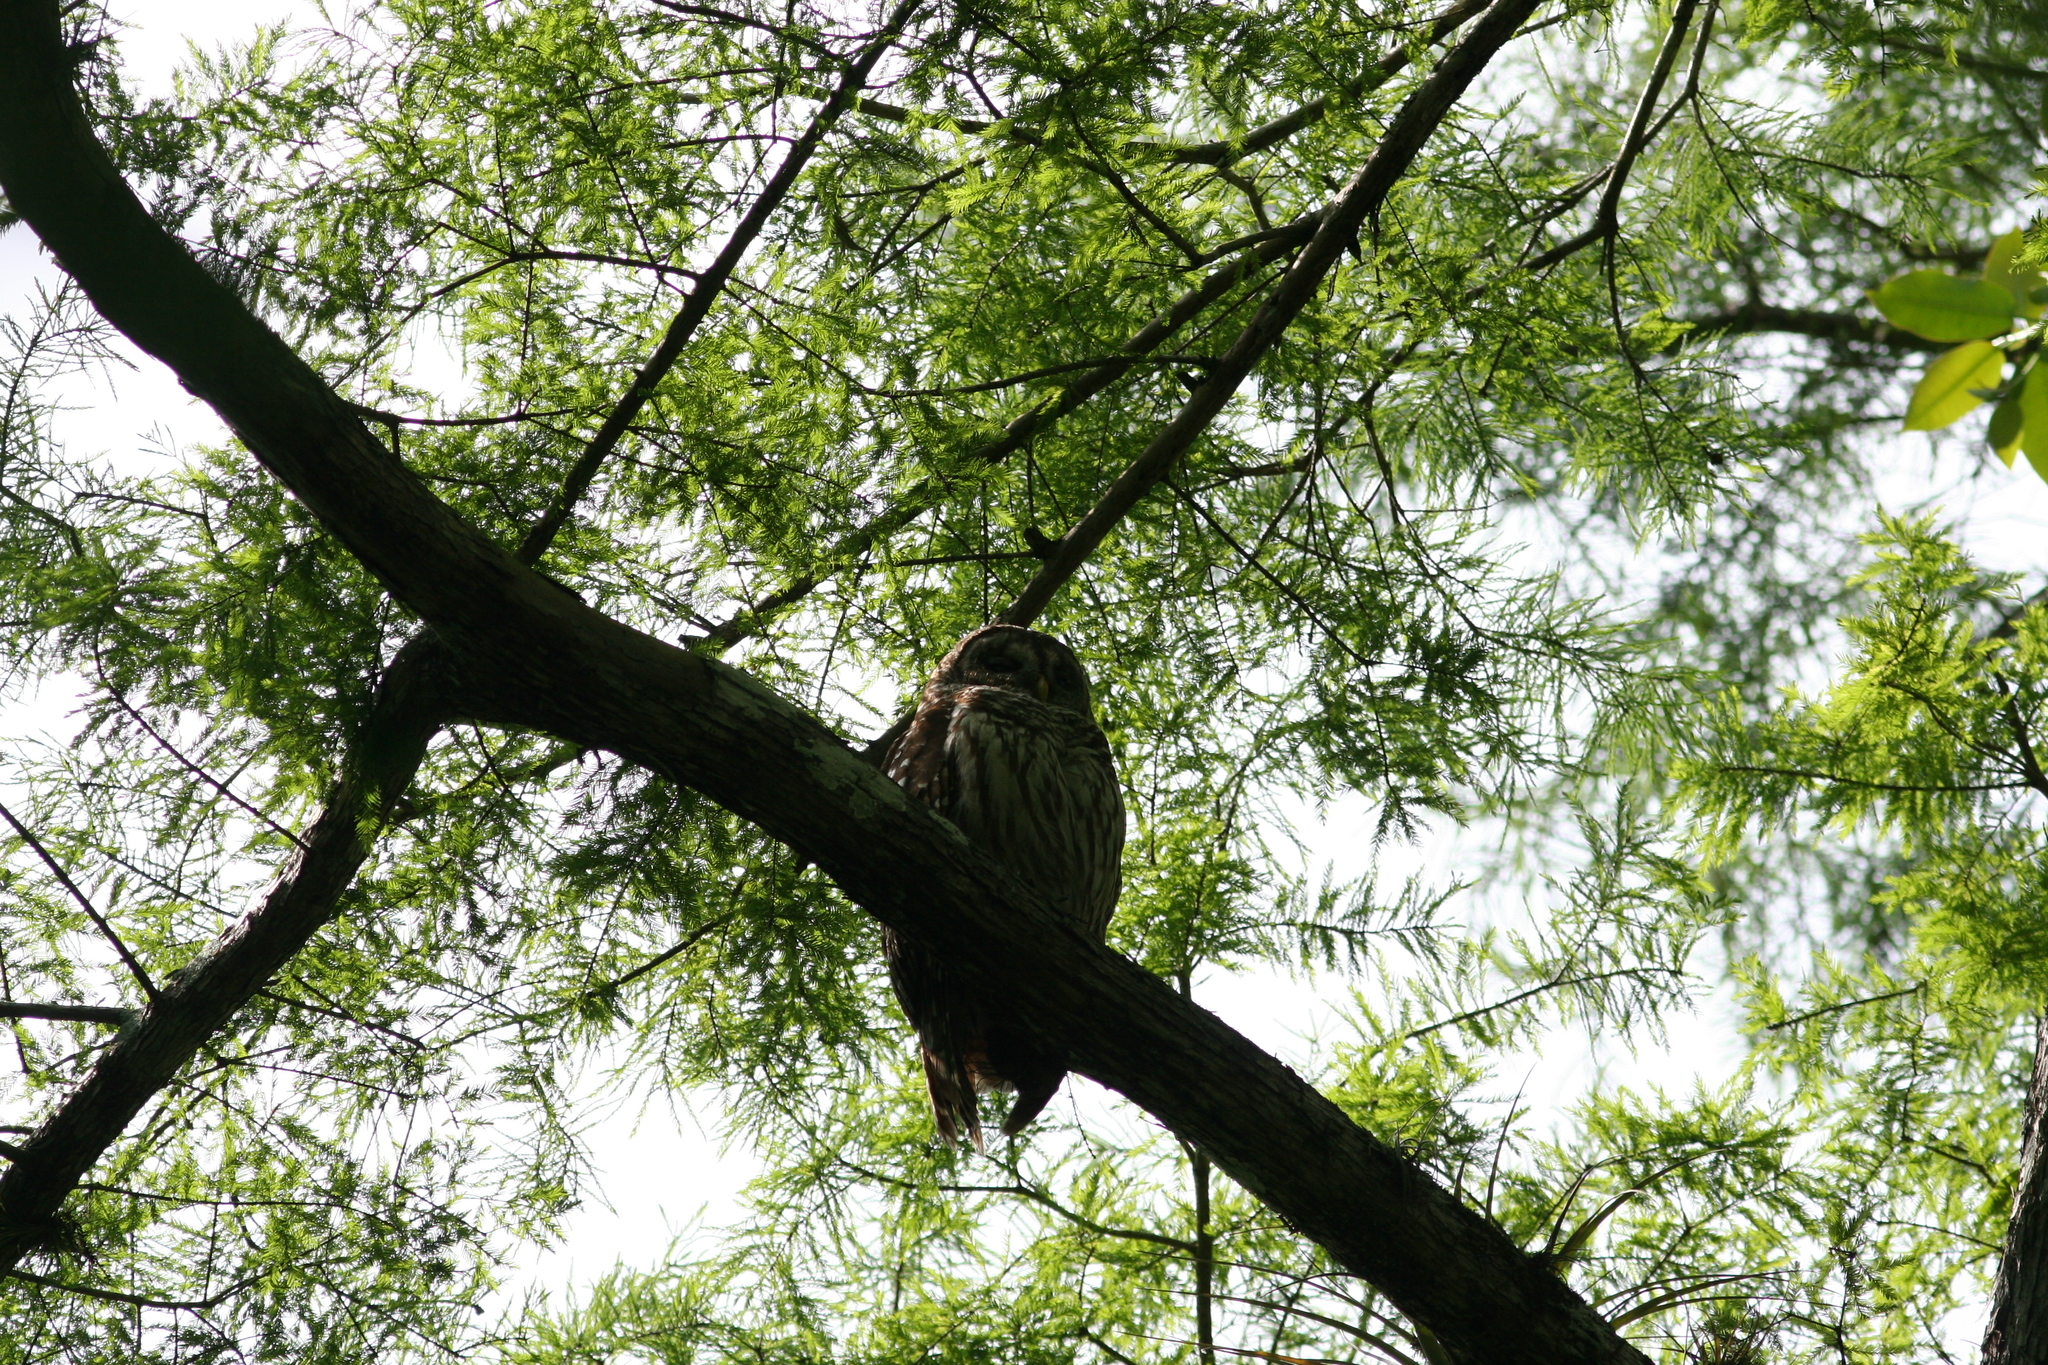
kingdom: Animalia
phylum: Chordata
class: Aves
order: Strigiformes
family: Strigidae
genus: Strix
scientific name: Strix varia
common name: Barred owl
